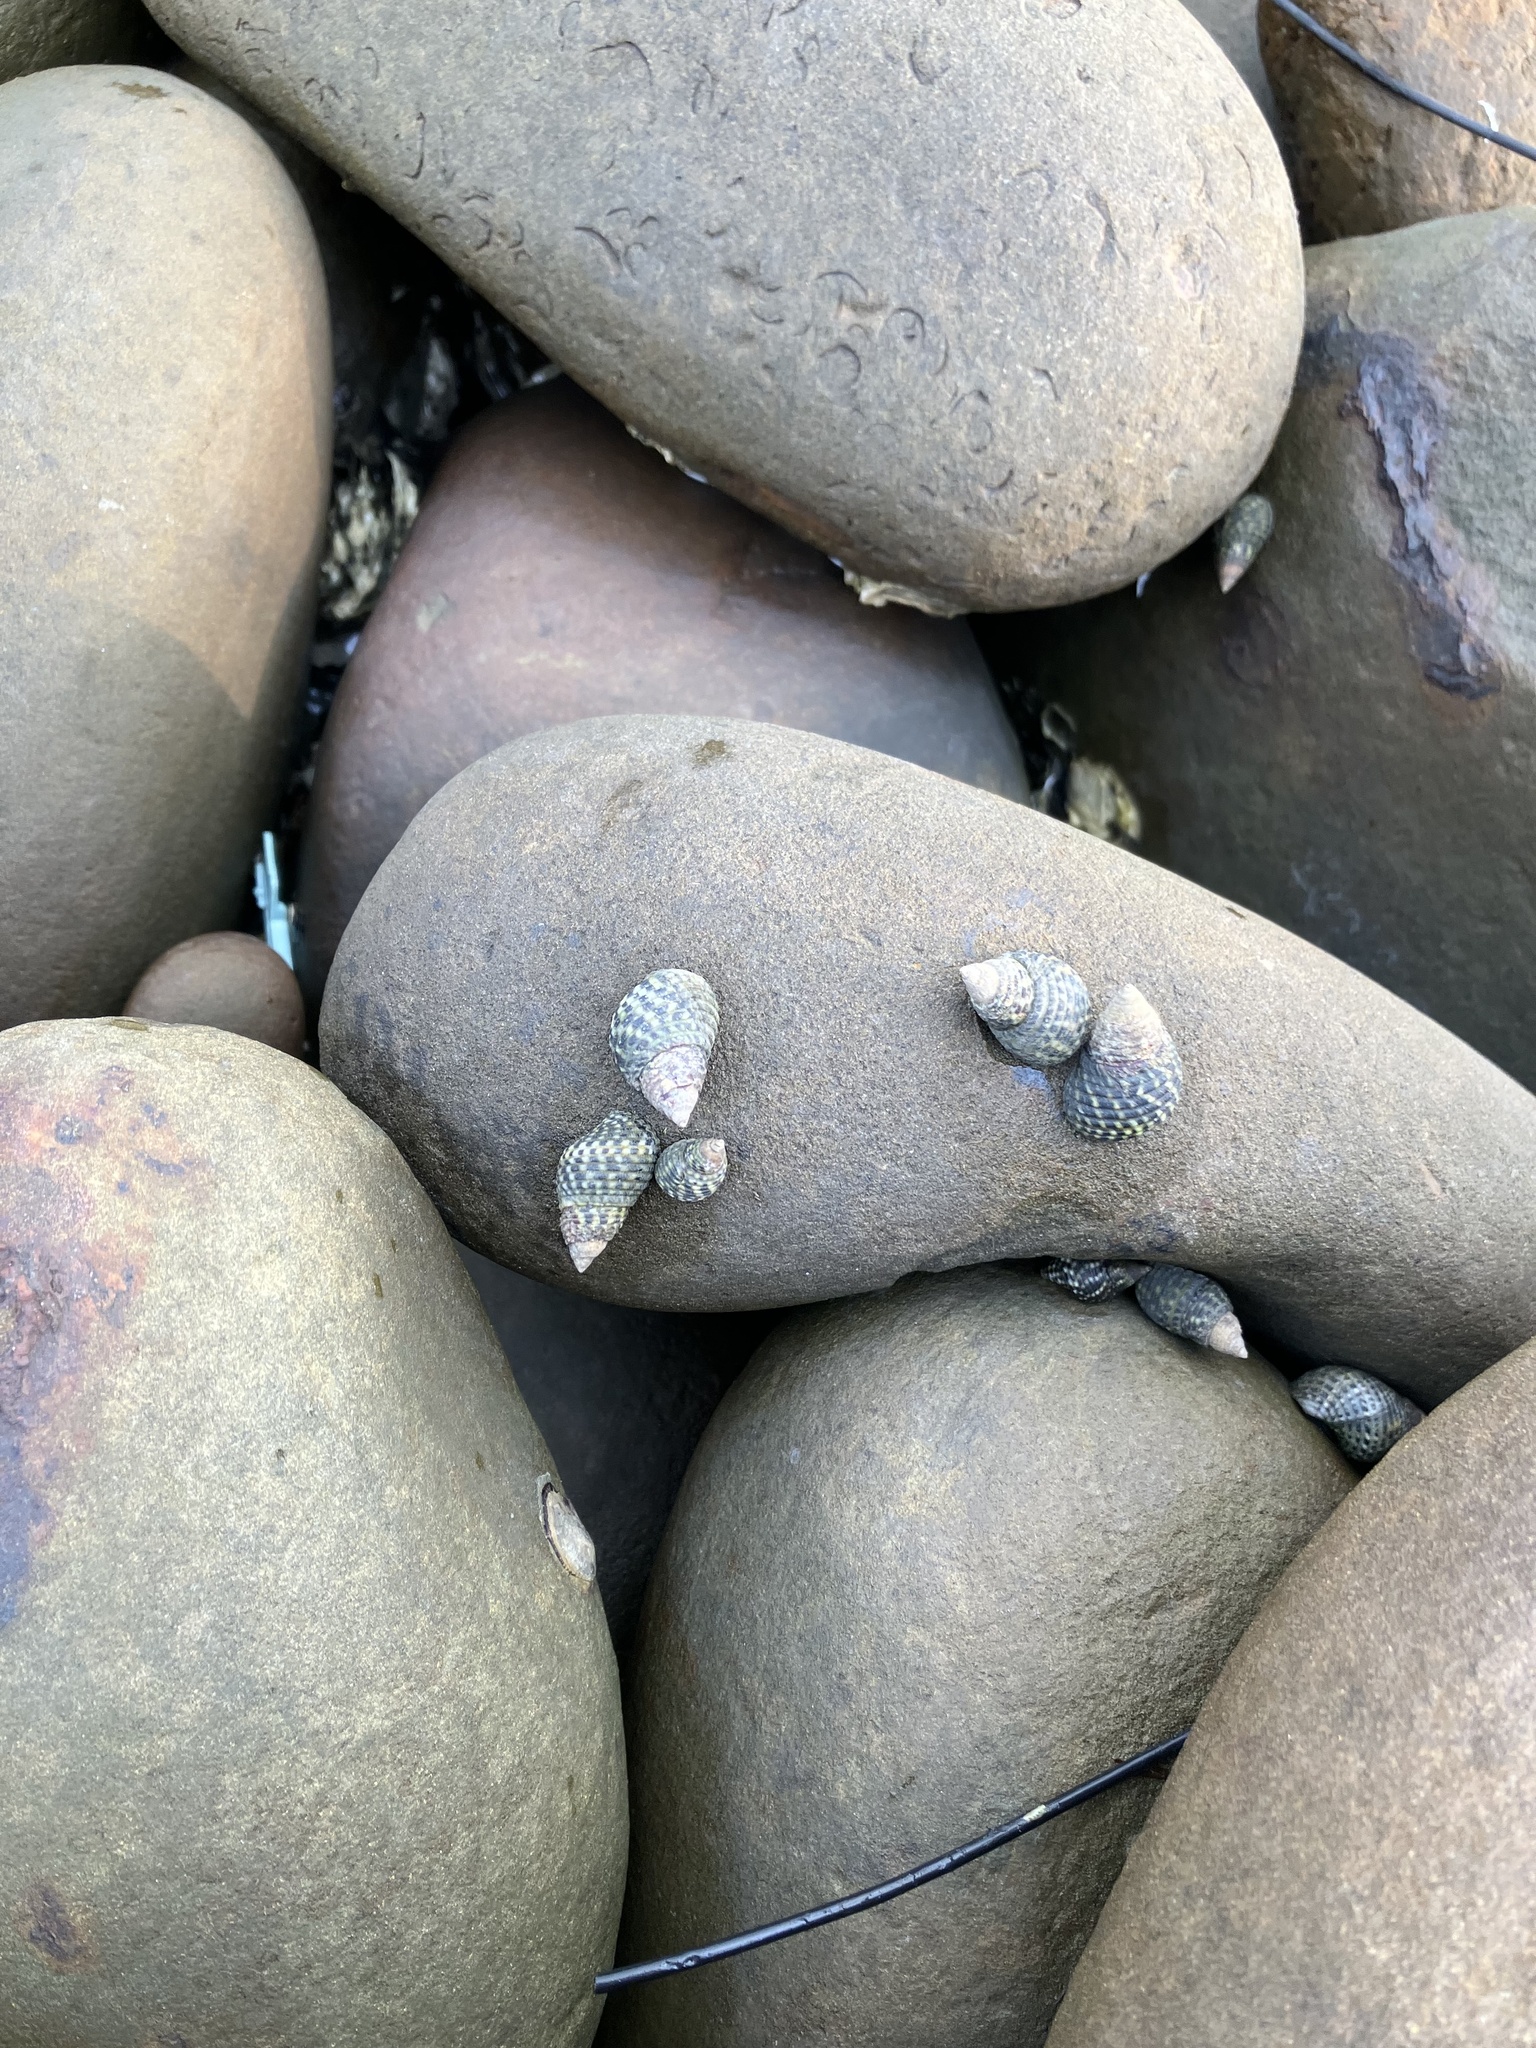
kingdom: Animalia
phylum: Mollusca
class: Gastropoda
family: Planaxidae
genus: Planaxis
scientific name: Planaxis sulcatus
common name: Furrowed planaxis
